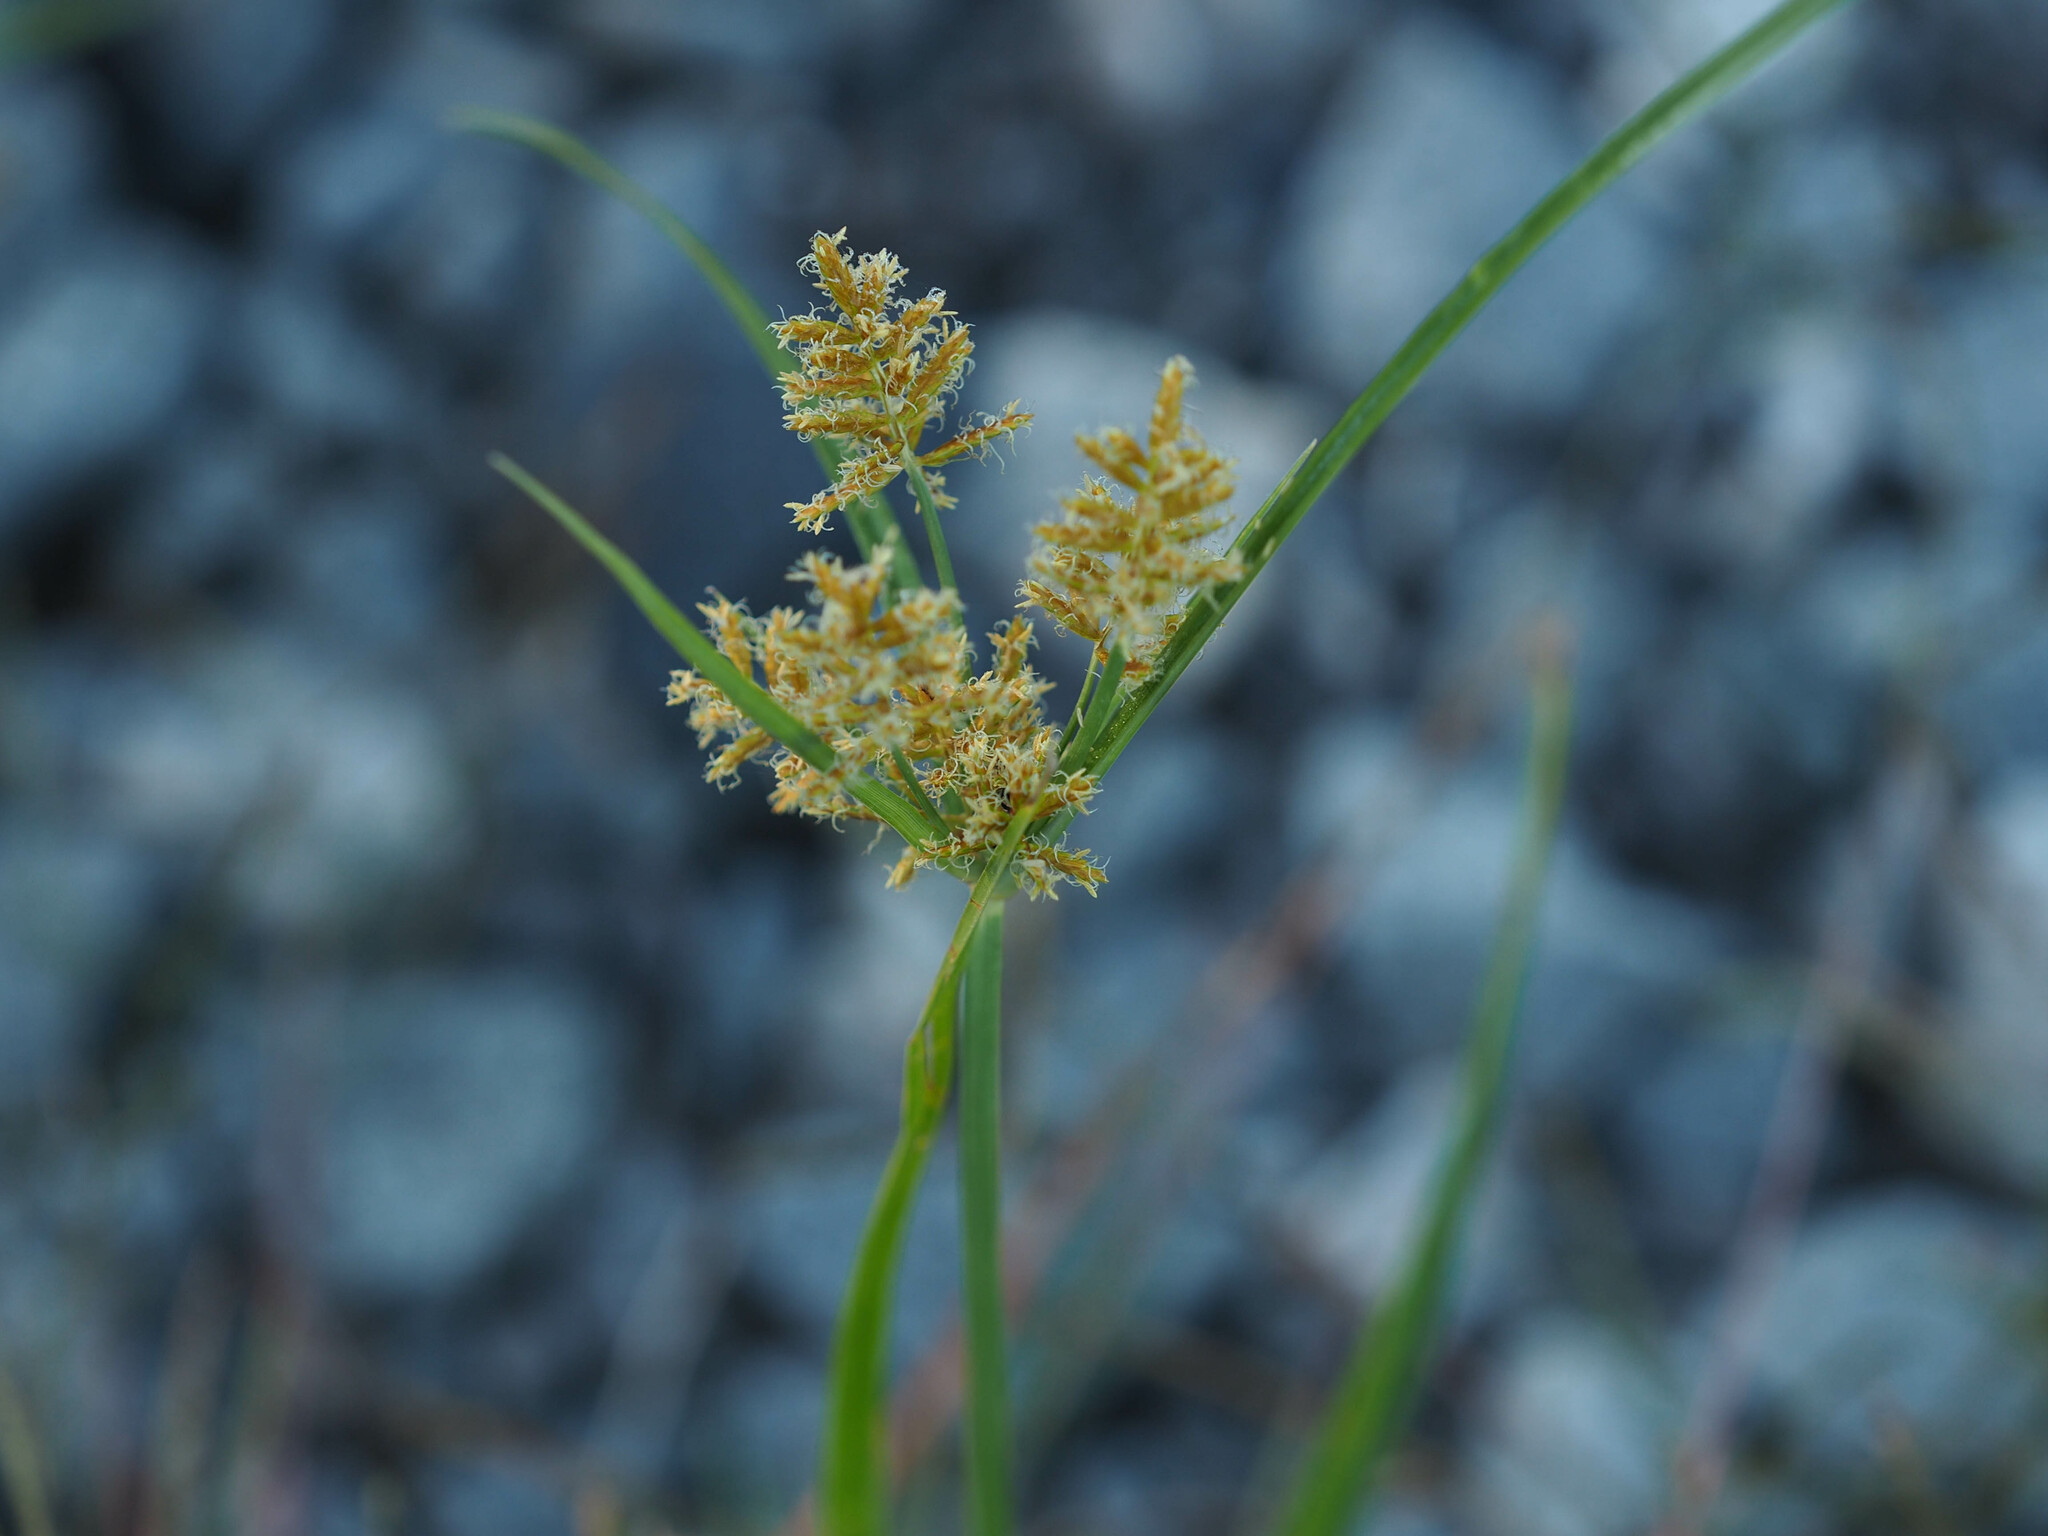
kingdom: Plantae
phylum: Tracheophyta
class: Liliopsida
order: Poales
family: Cyperaceae
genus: Cyperus
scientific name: Cyperus strigosus
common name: False nutsedge
